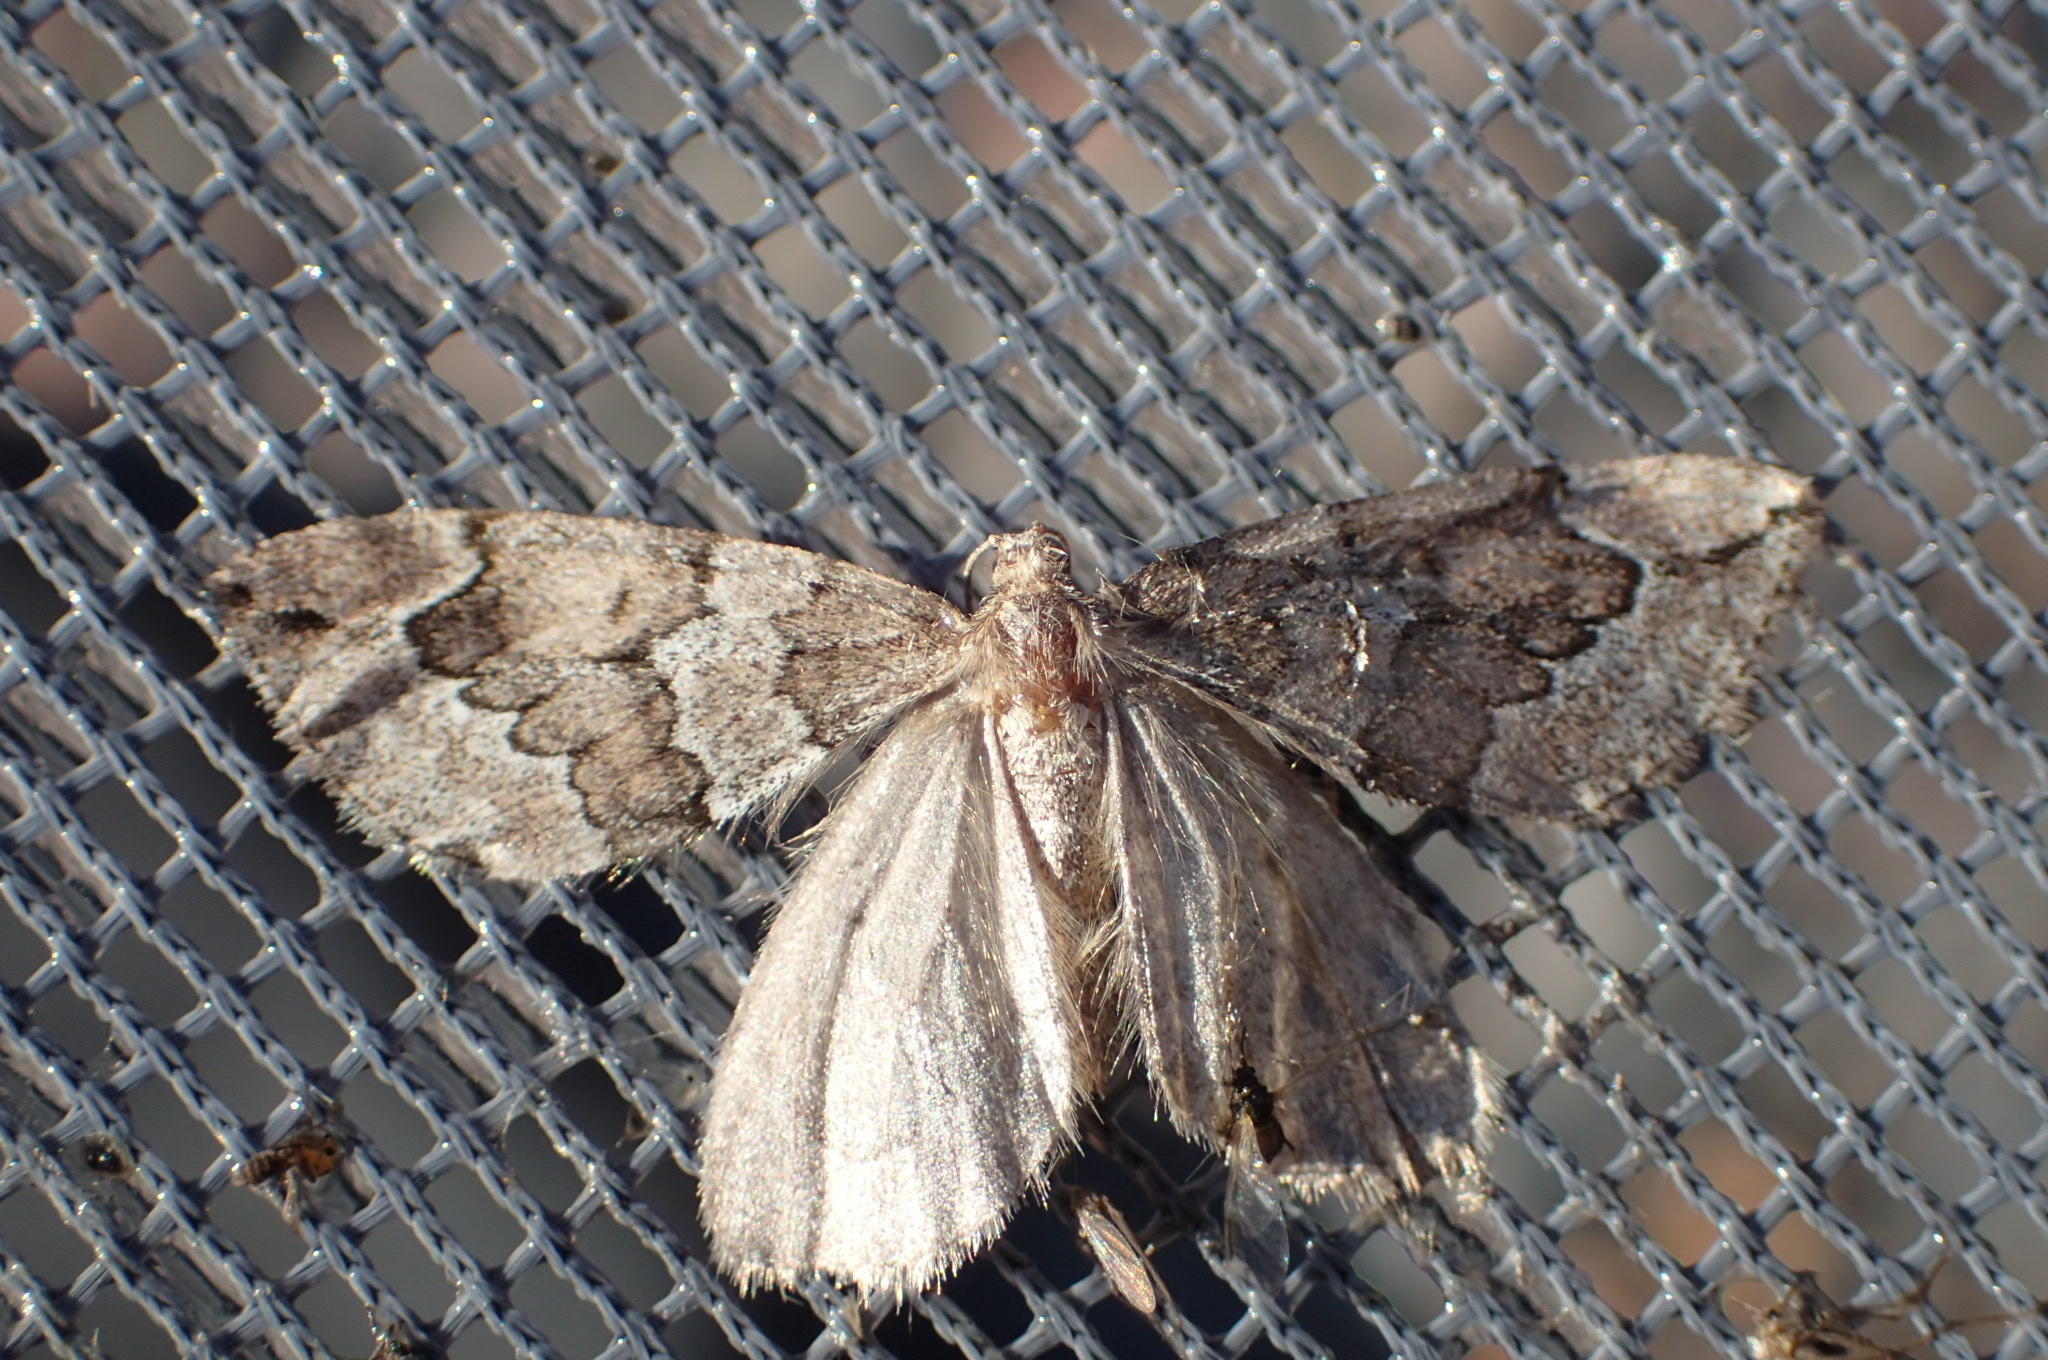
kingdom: Animalia
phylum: Arthropoda
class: Insecta
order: Lepidoptera
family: Geometridae
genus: Thera
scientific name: Thera juniperata
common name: Juniper carpet
